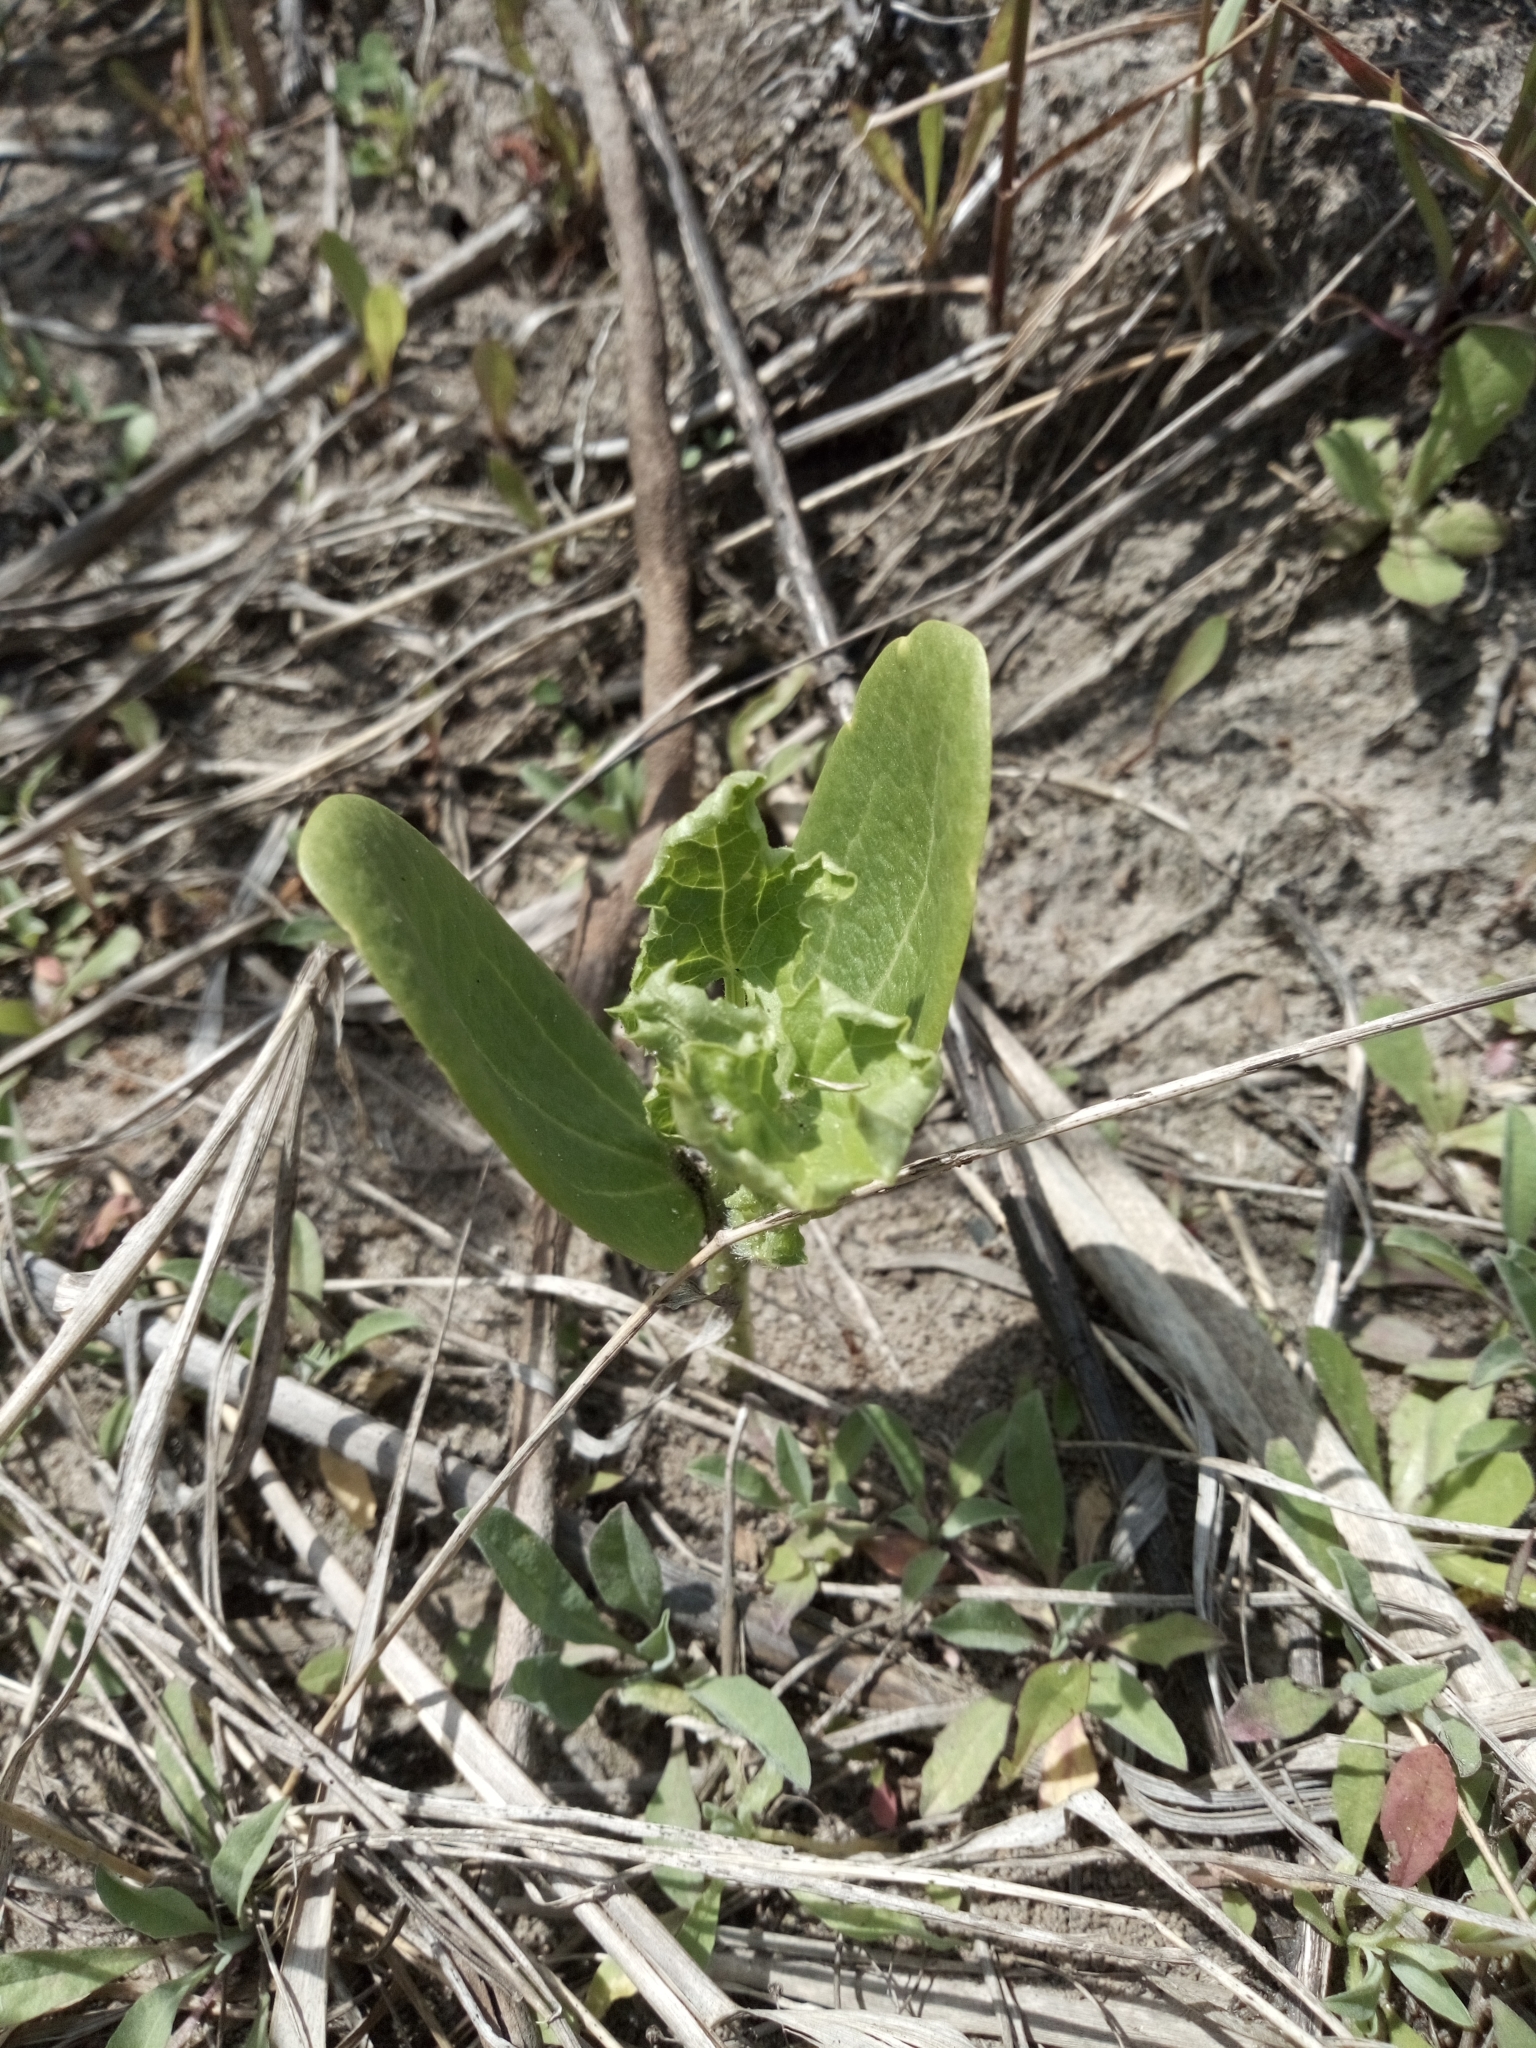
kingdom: Plantae
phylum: Tracheophyta
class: Magnoliopsida
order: Cucurbitales
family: Cucurbitaceae
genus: Echinocystis
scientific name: Echinocystis lobata
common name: Wild cucumber
